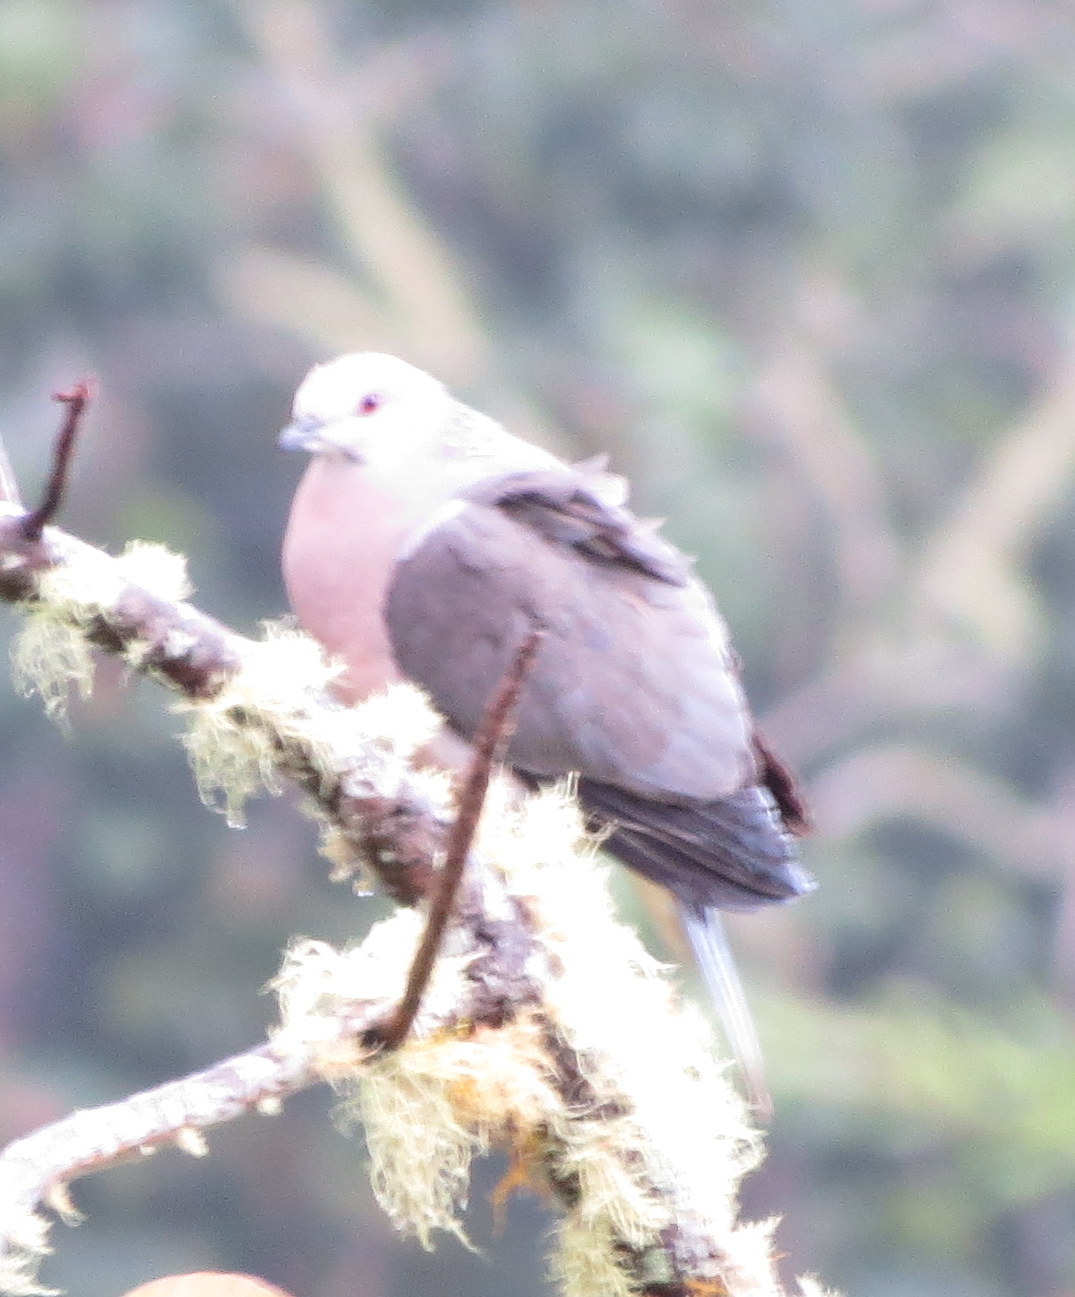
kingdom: Animalia
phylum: Chordata
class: Aves
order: Columbiformes
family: Columbidae
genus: Patagioenas
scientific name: Patagioenas caribaea
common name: Ring-tailed pigeon
